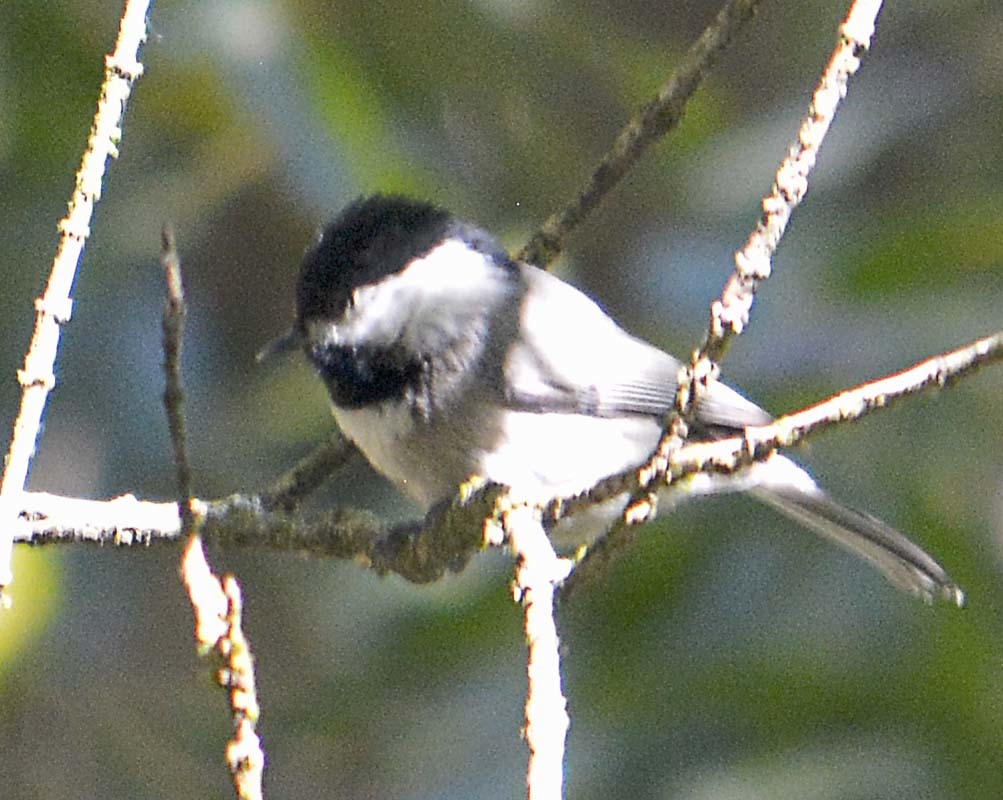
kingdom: Animalia
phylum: Chordata
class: Aves
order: Passeriformes
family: Paridae
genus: Poecile
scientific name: Poecile sclateri
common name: Mexican chickadee
